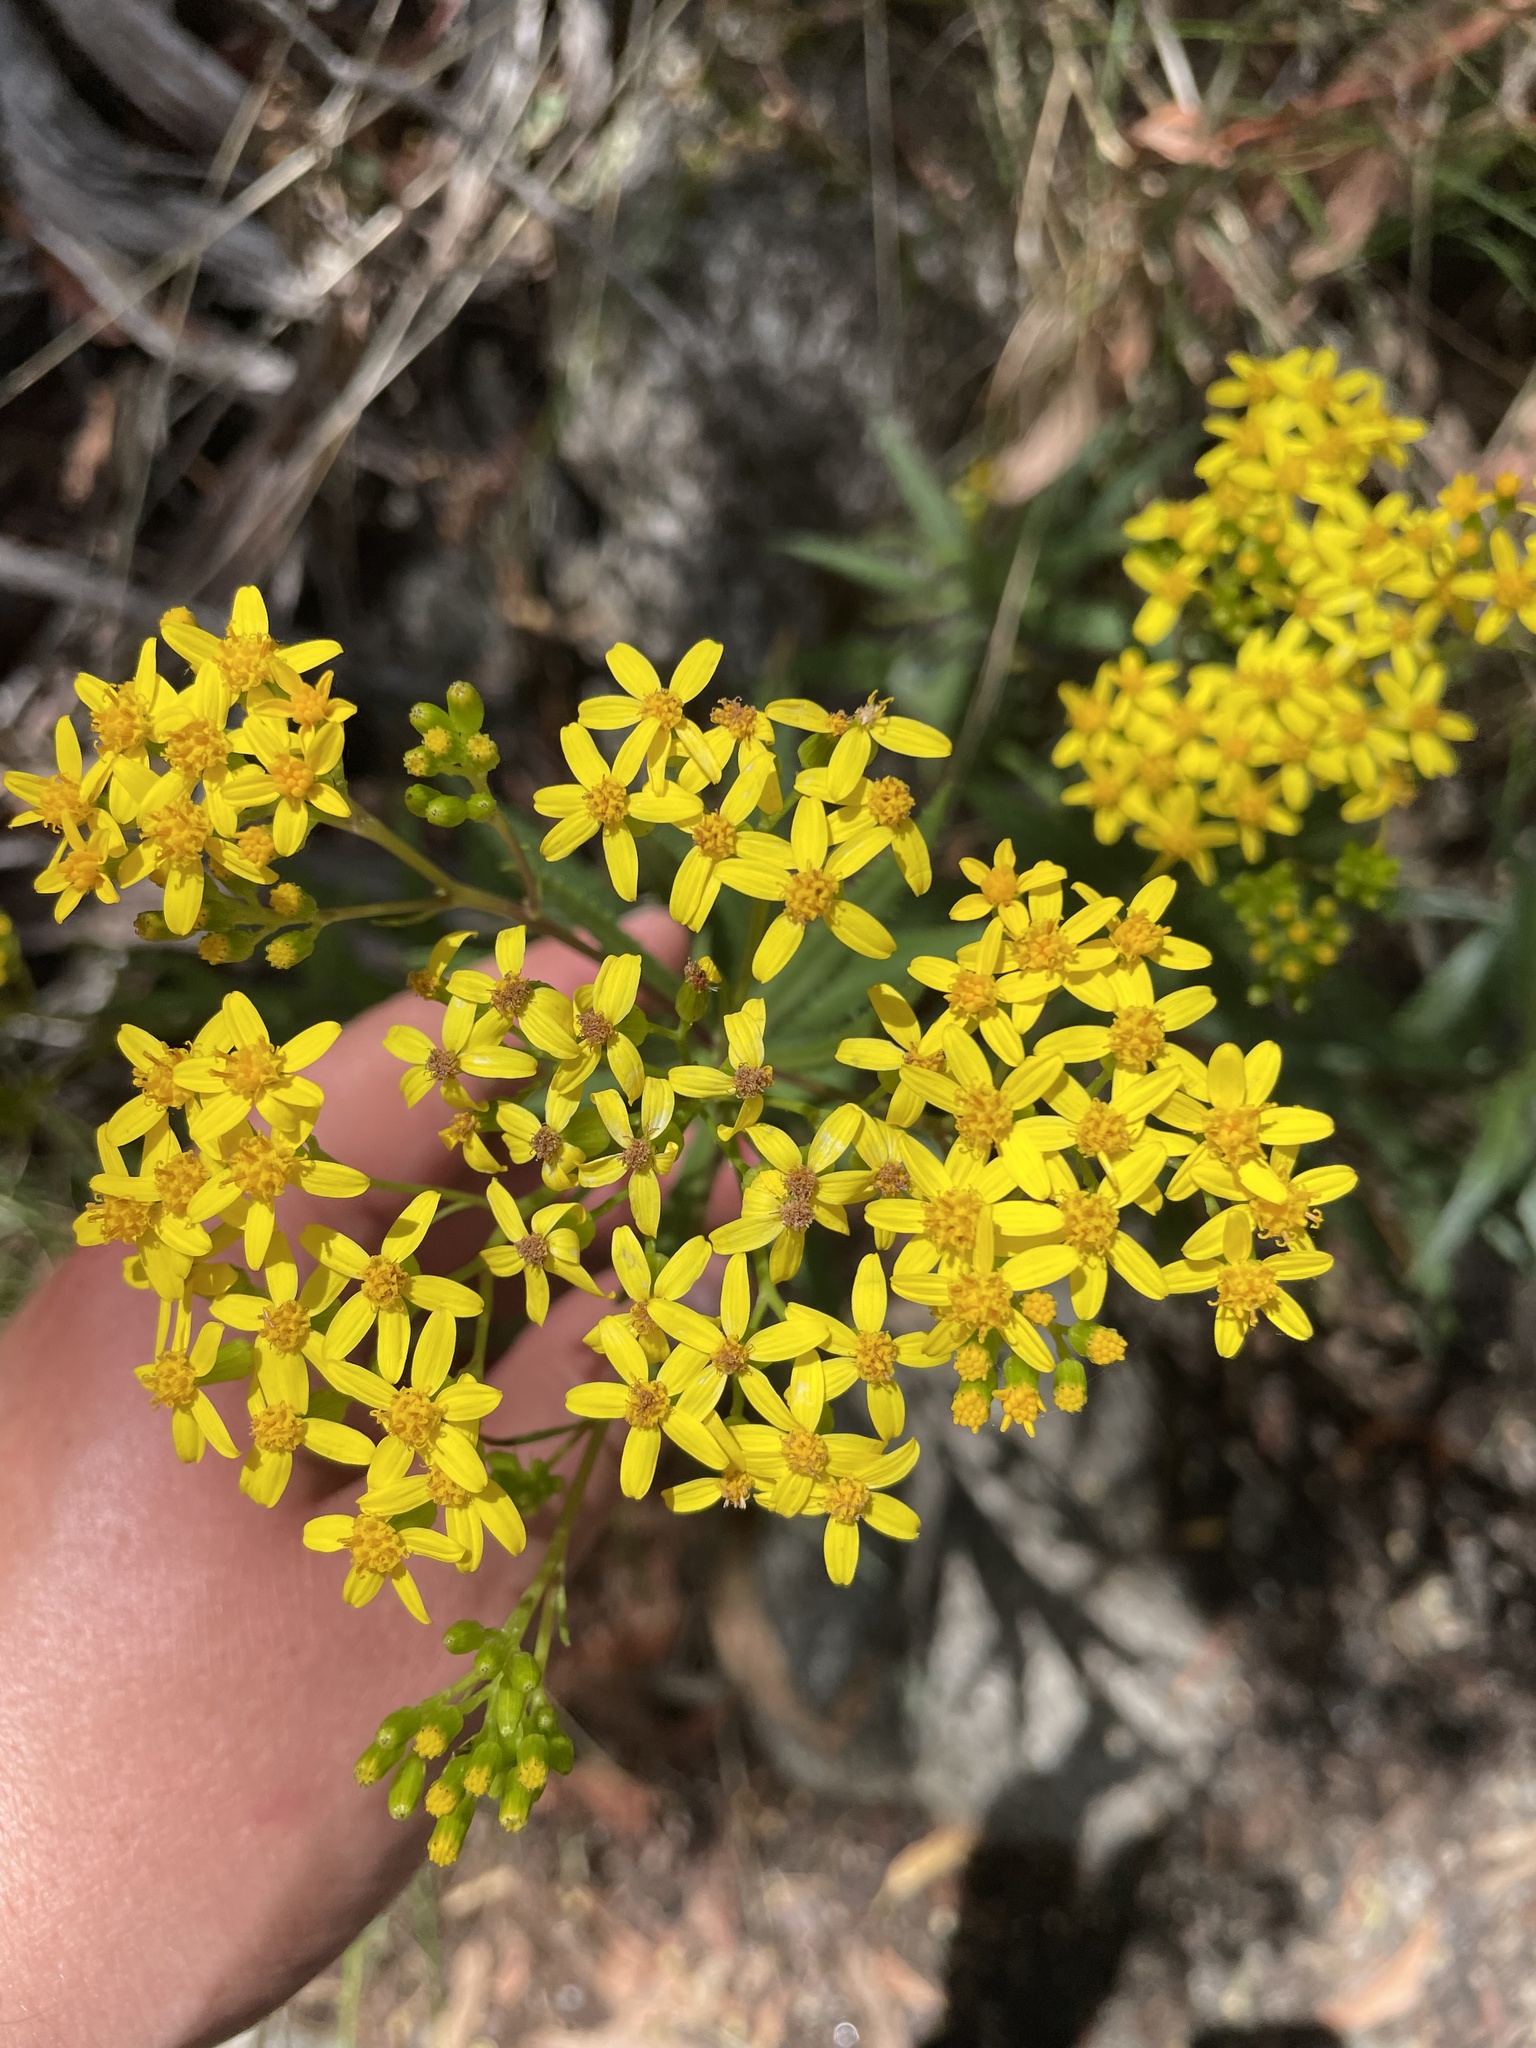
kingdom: Plantae
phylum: Tracheophyta
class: Magnoliopsida
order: Asterales
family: Asteraceae
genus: Senecio
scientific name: Senecio linearifolius
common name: Fireweed groundsel
